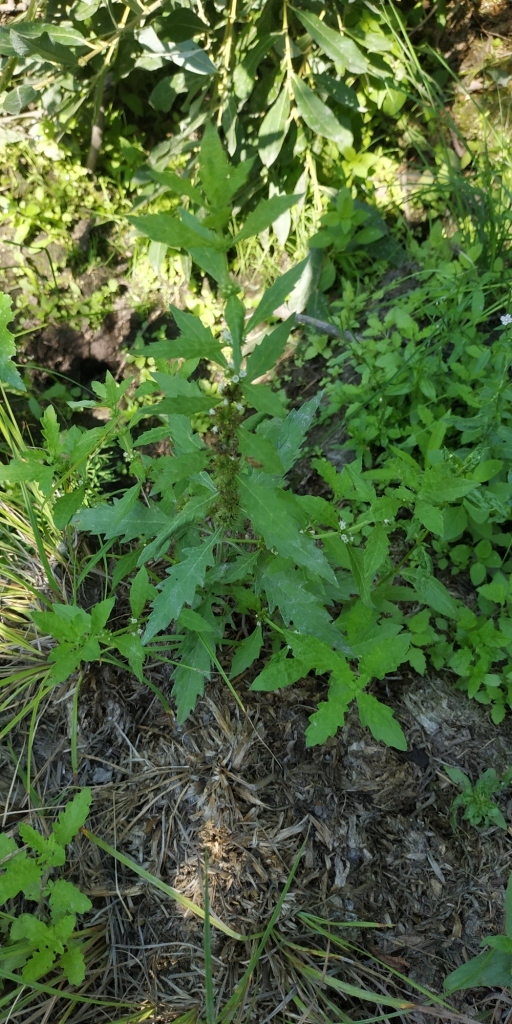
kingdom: Plantae
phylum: Tracheophyta
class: Magnoliopsida
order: Lamiales
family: Lamiaceae
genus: Lycopus
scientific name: Lycopus europaeus
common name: European bugleweed
